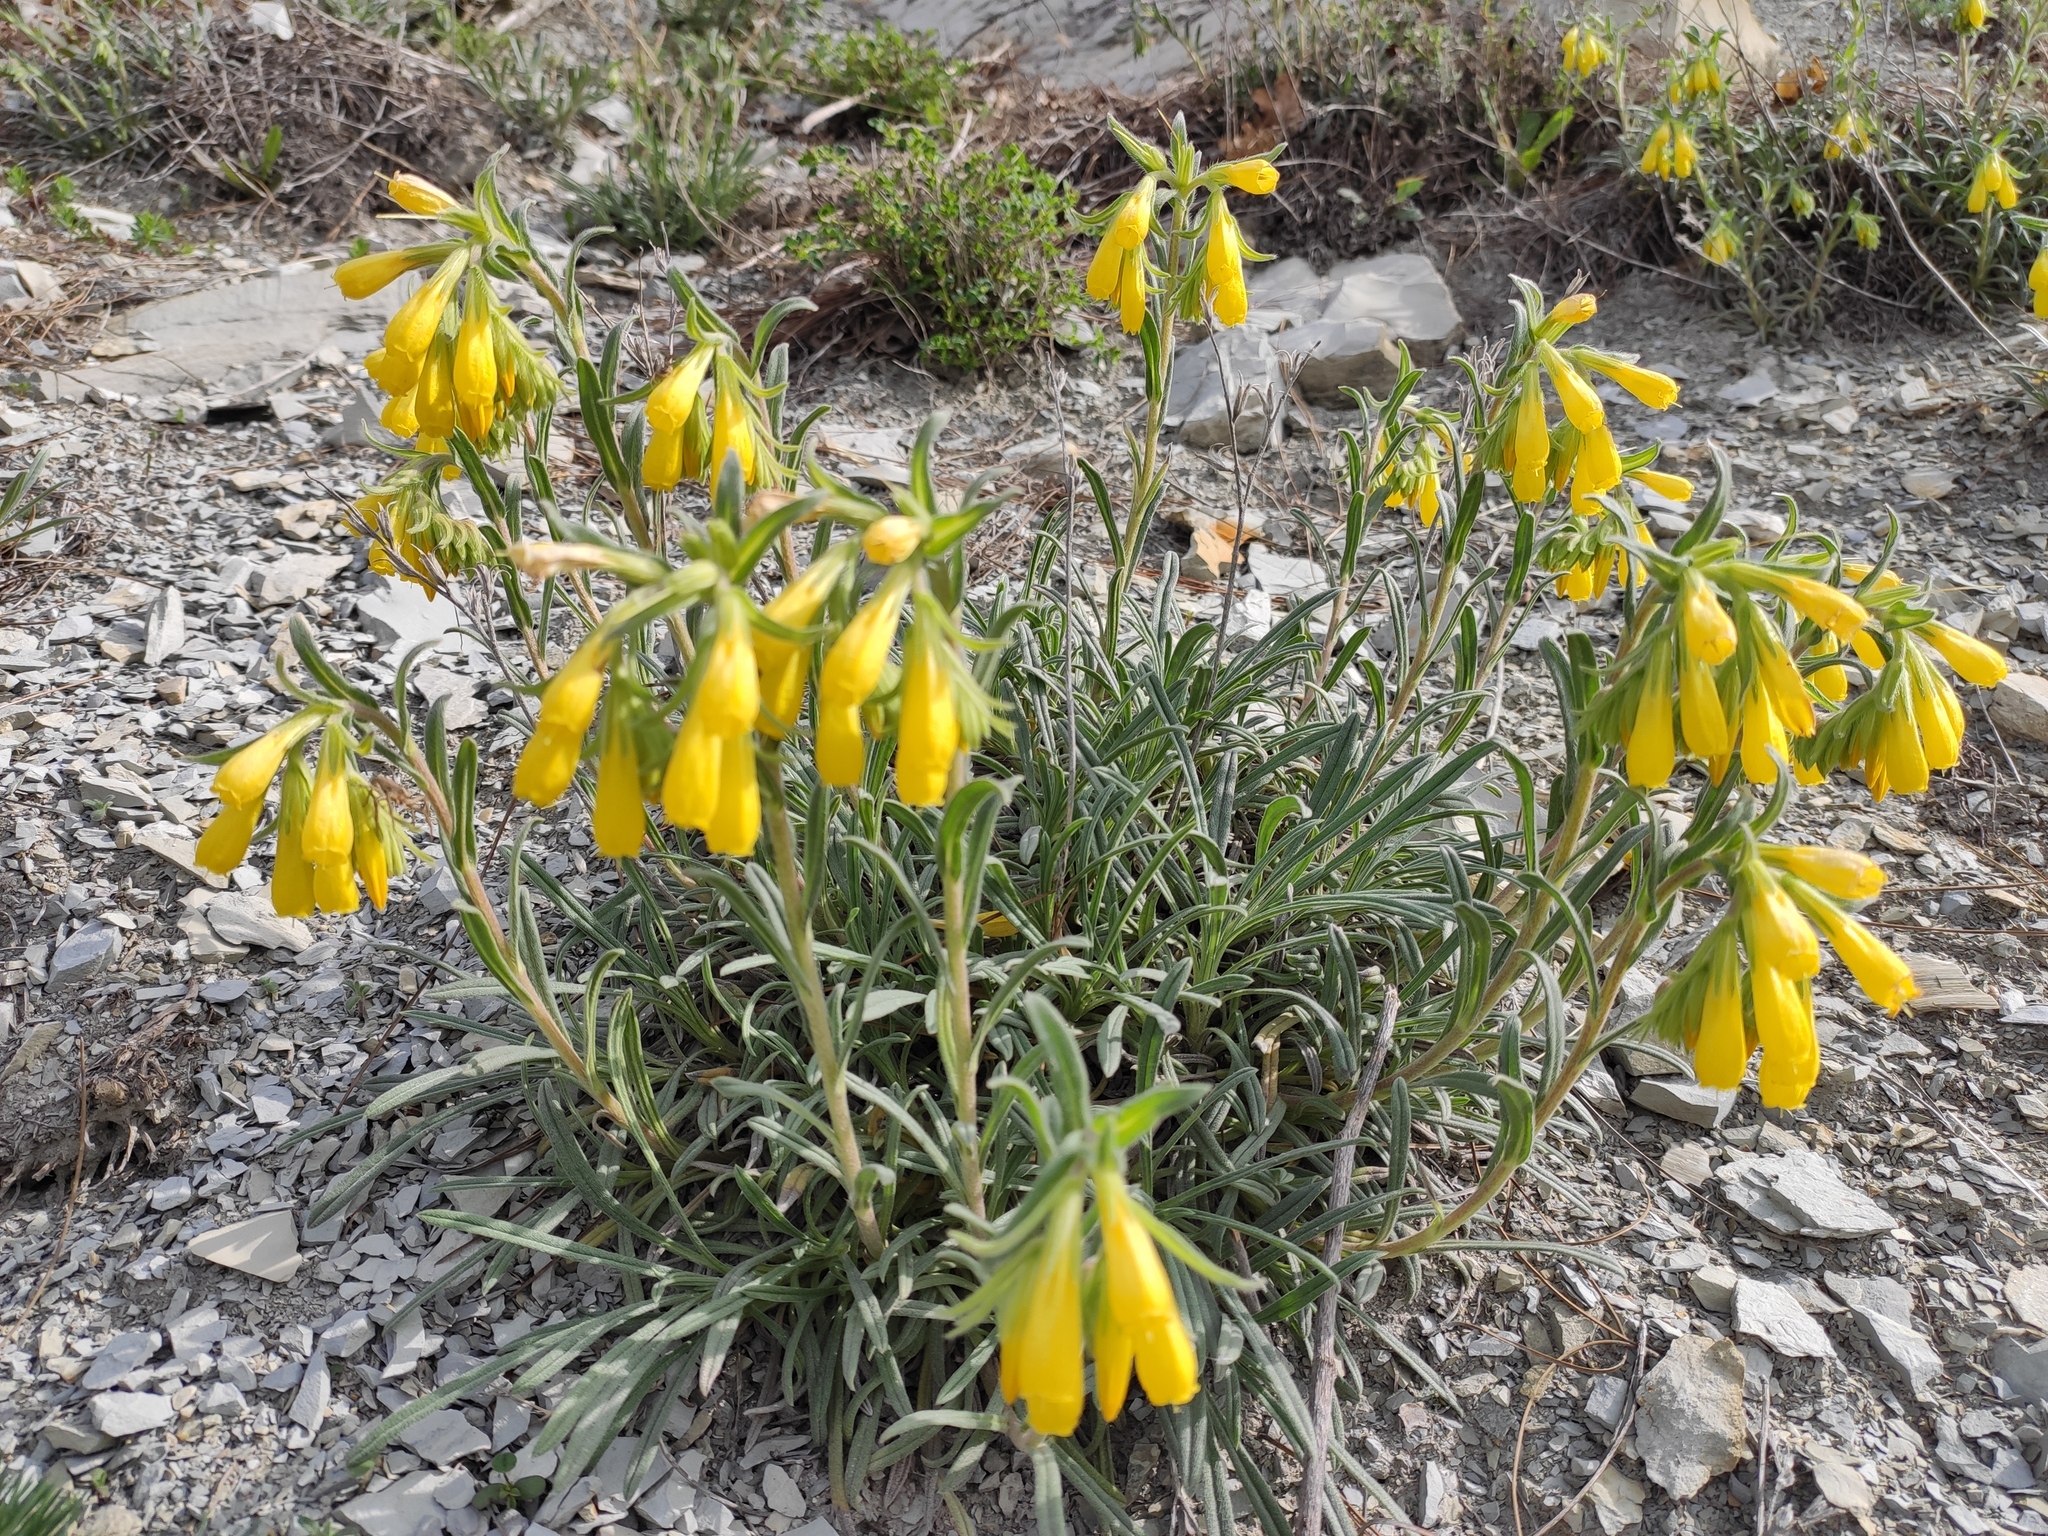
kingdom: Plantae
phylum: Tracheophyta
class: Magnoliopsida
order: Boraginales
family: Boraginaceae
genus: Onosma
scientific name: Onosma taurica
